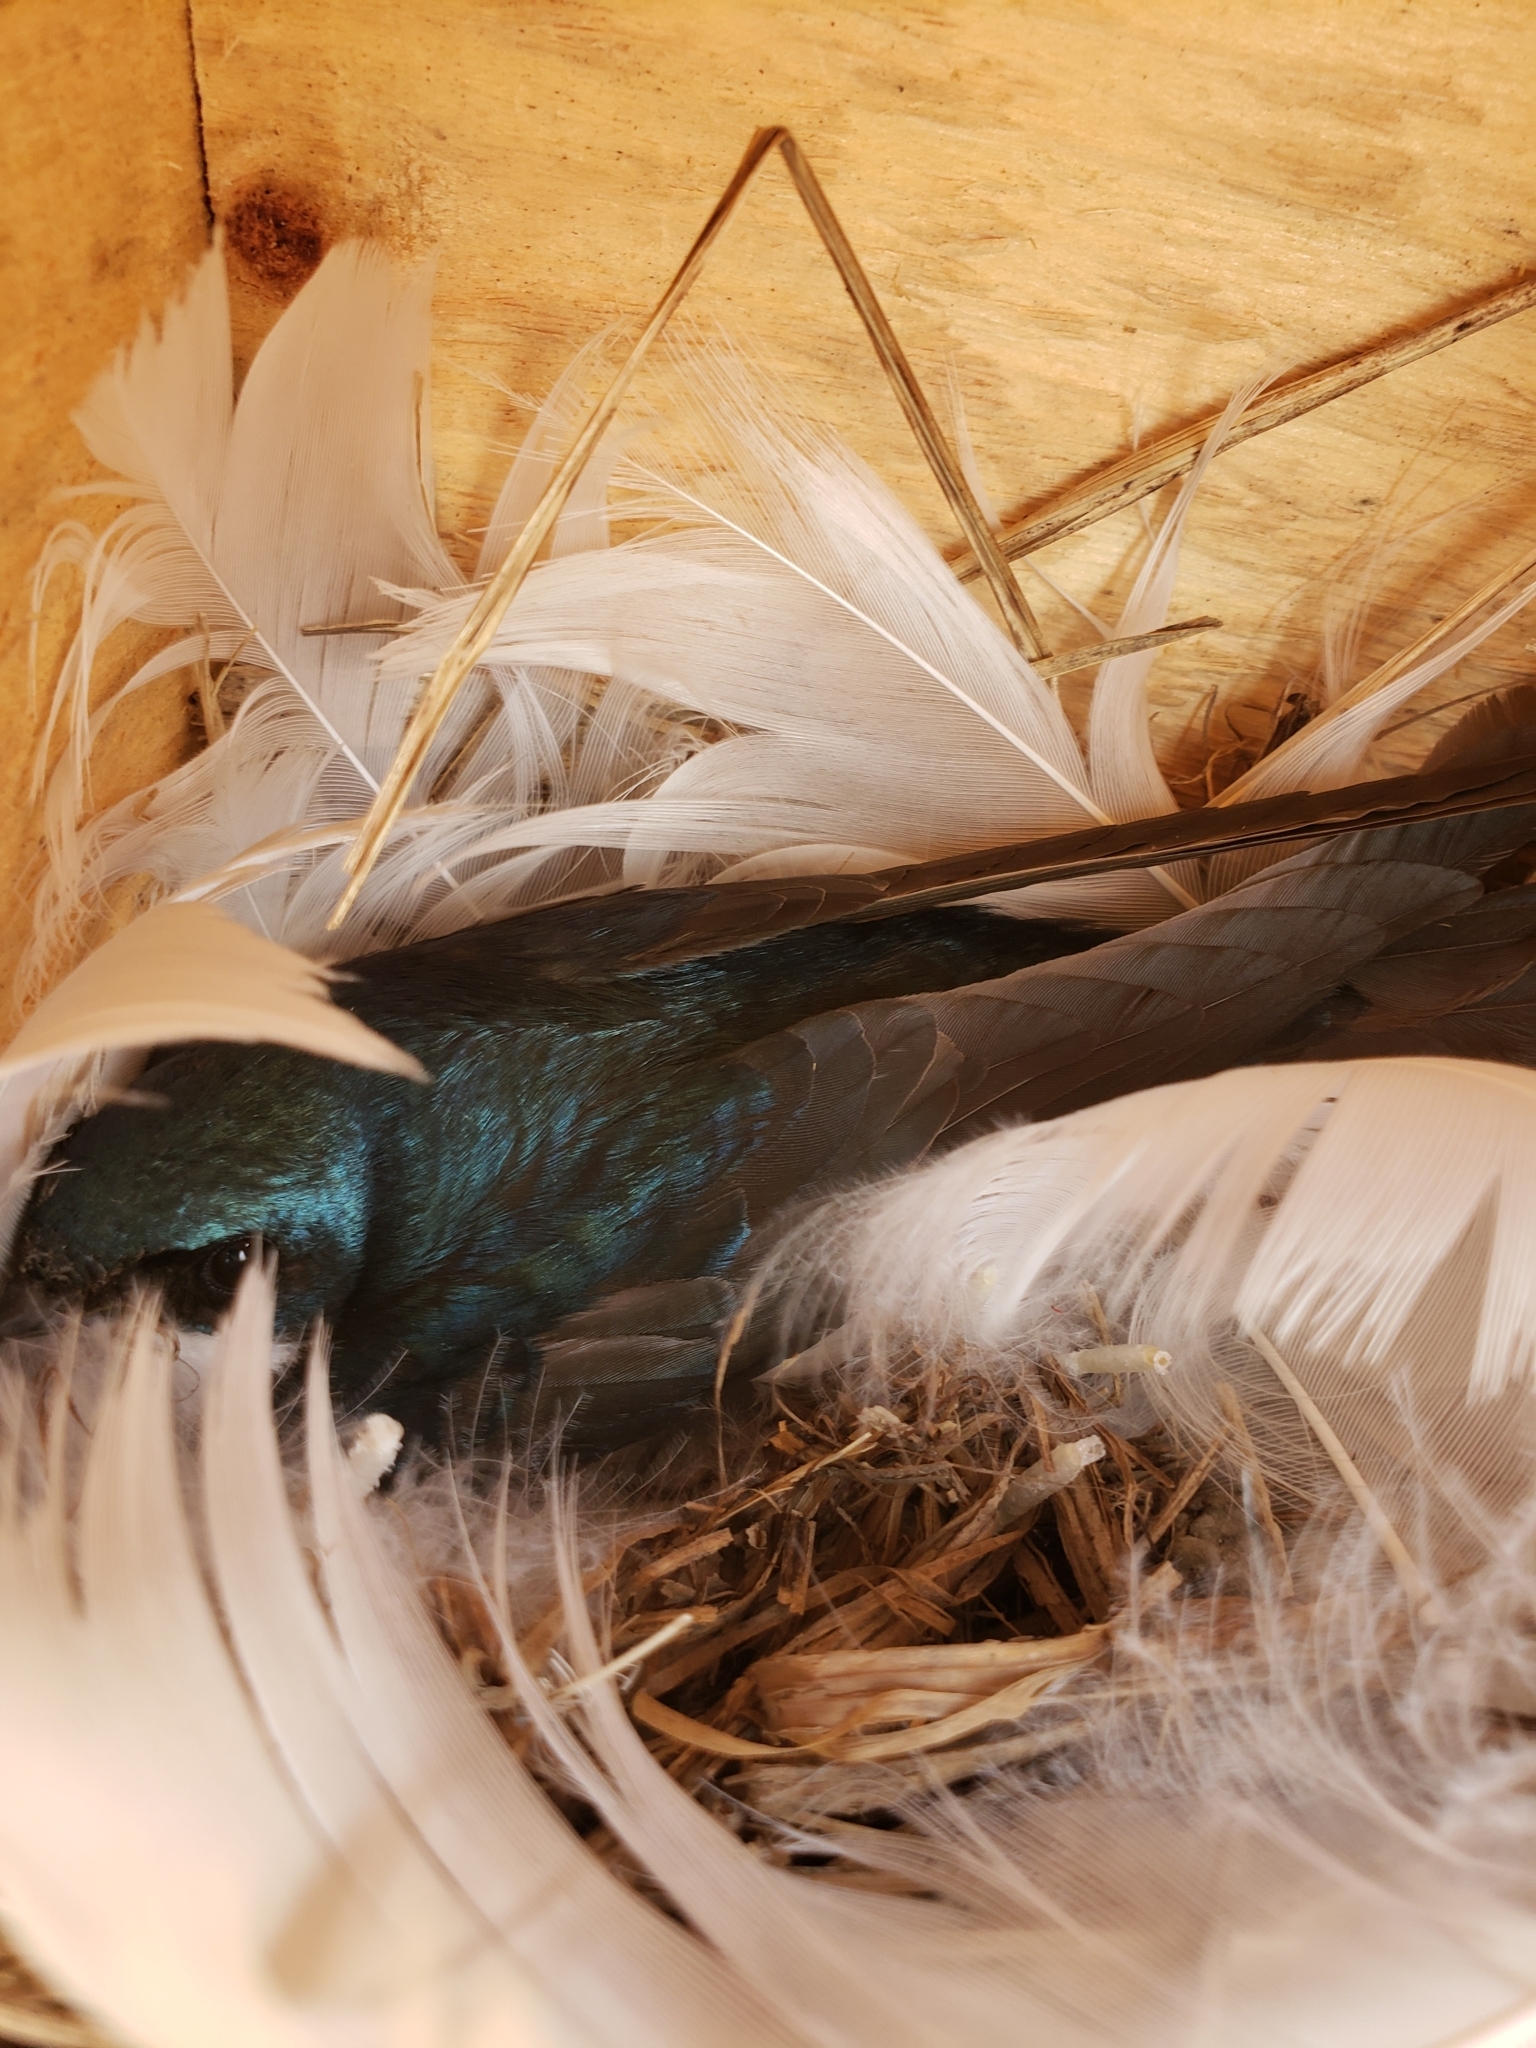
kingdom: Animalia
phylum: Chordata
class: Aves
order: Passeriformes
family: Hirundinidae
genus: Tachycineta
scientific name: Tachycineta bicolor
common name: Tree swallow
